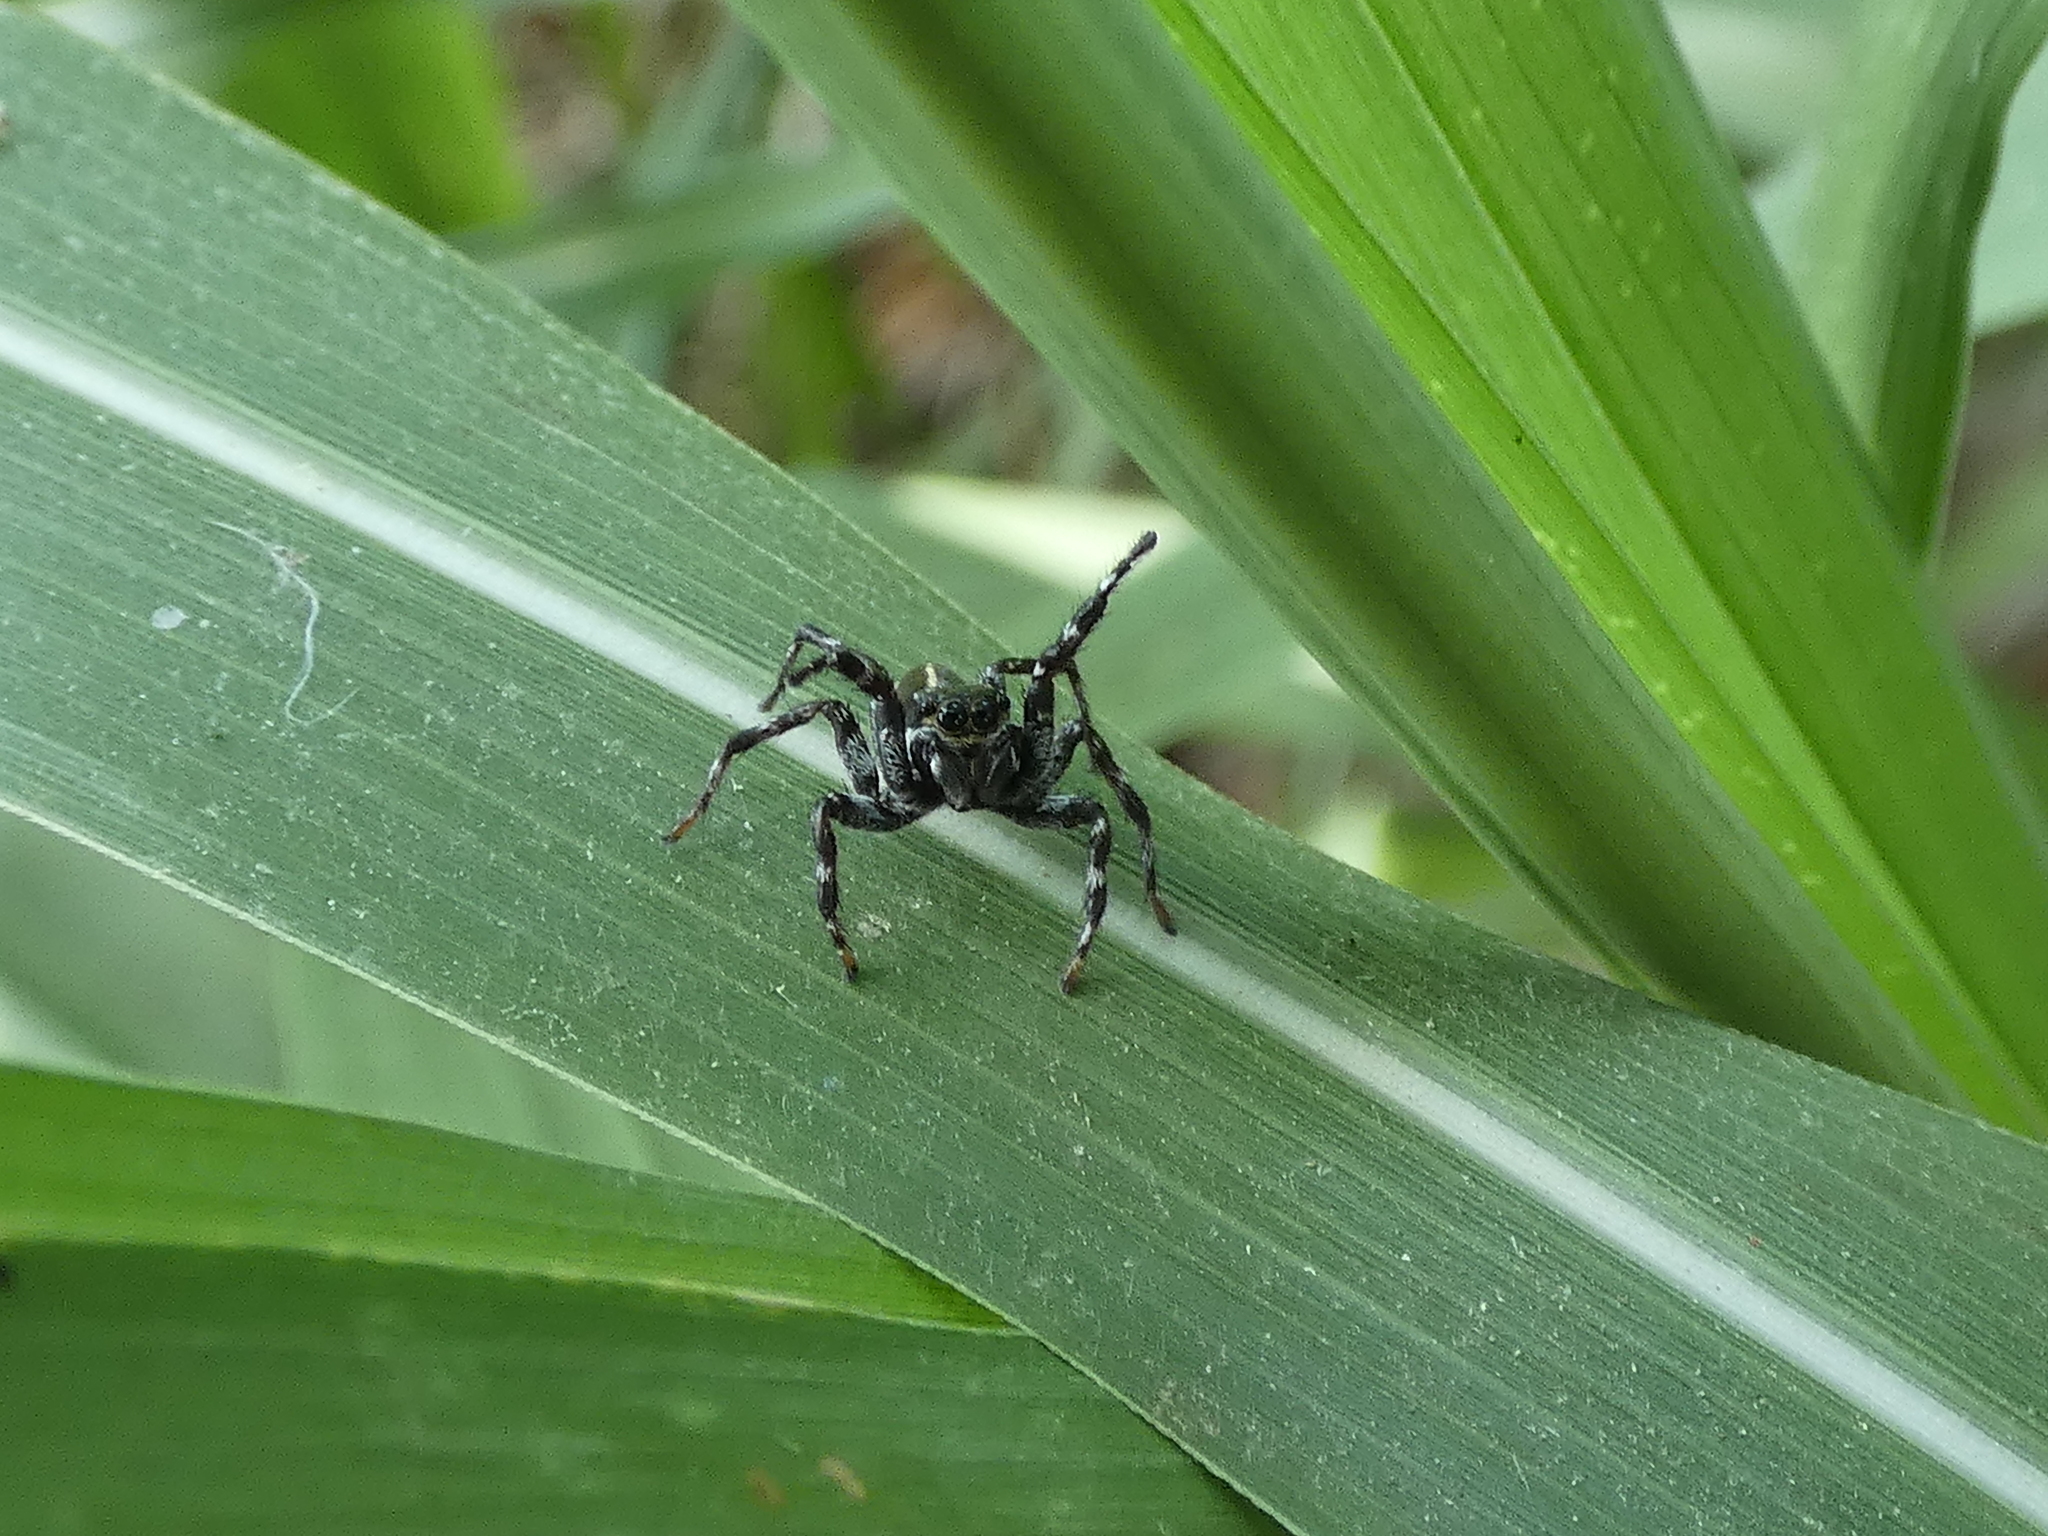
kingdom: Animalia
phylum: Arthropoda
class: Arachnida
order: Araneae
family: Salticidae
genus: Phiale
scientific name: Phiale tristis
